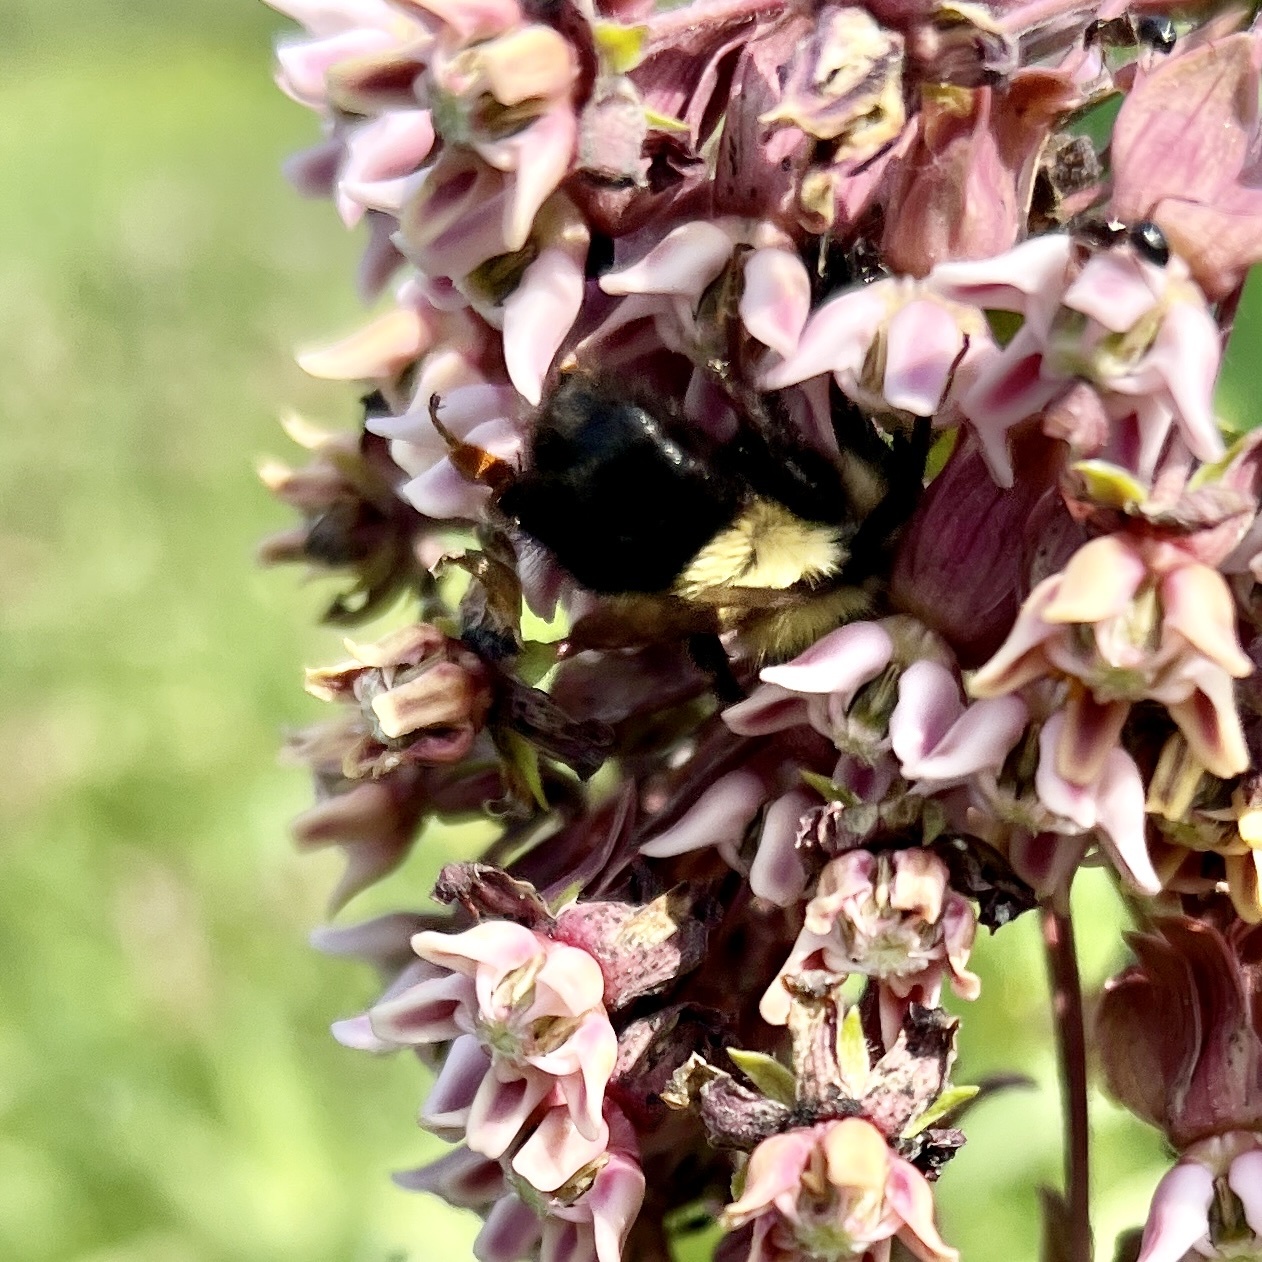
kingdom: Animalia
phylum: Arthropoda
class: Insecta
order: Hymenoptera
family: Apidae
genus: Bombus
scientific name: Bombus impatiens
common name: Common eastern bumble bee
